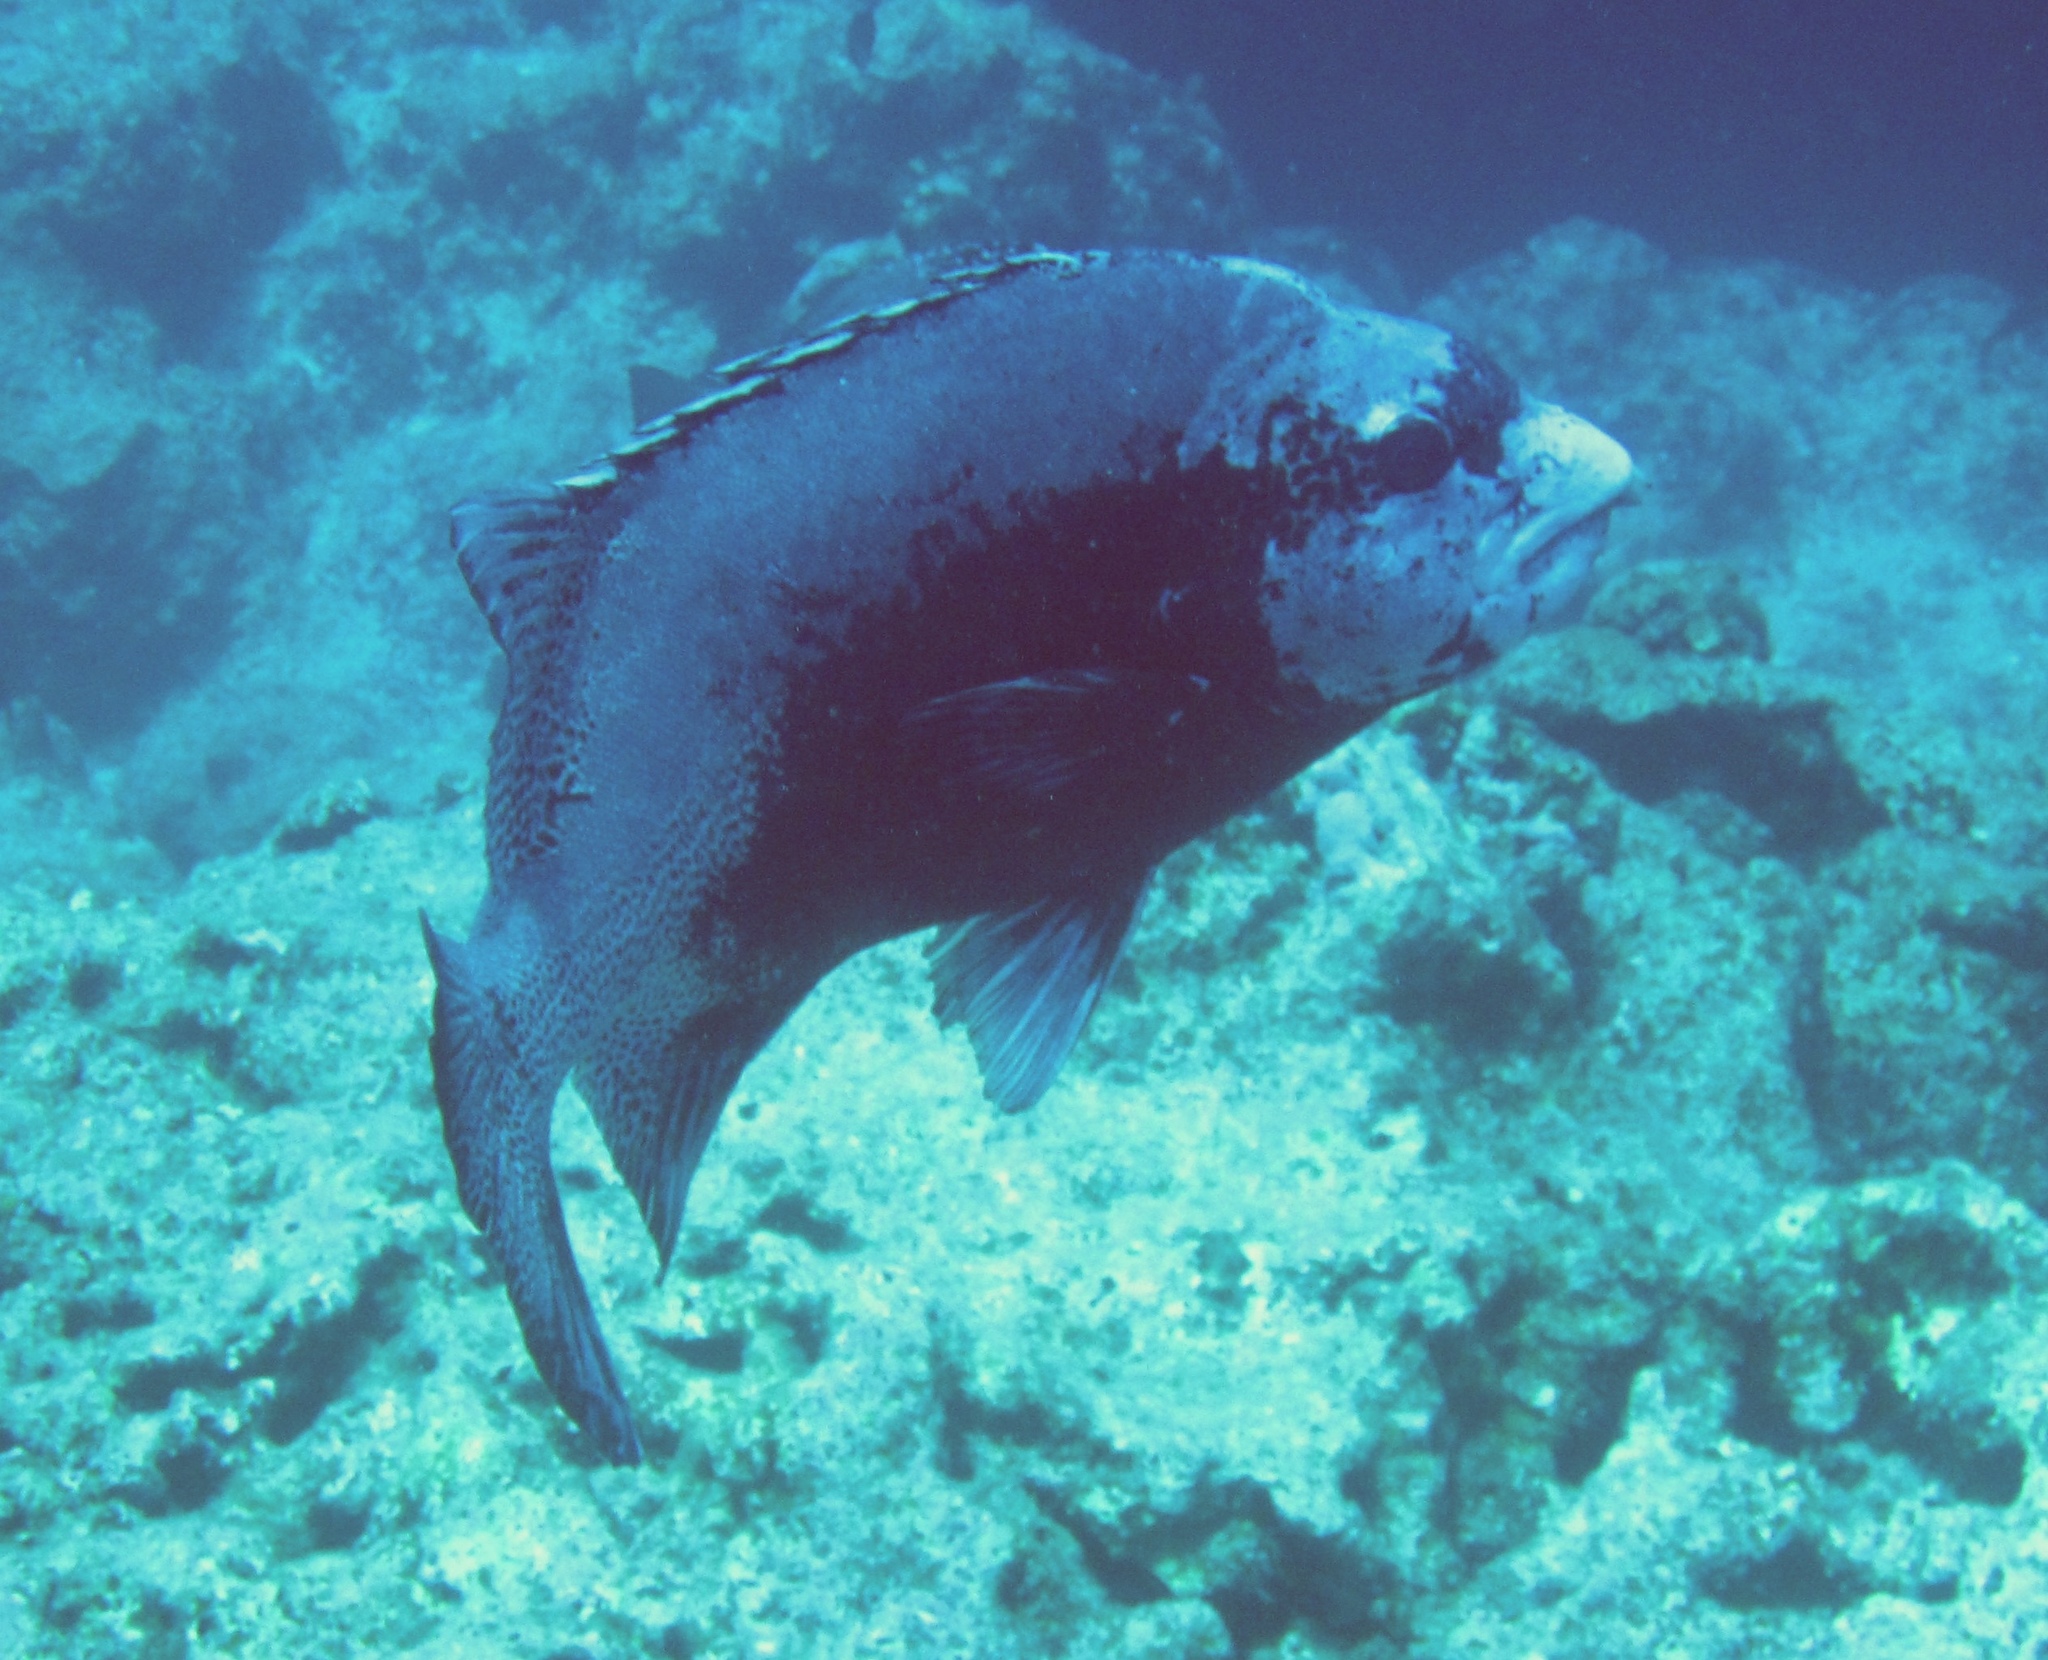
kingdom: Animalia
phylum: Chordata
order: Perciformes
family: Oplegnathidae
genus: Oplegnathus
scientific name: Oplegnathus punctatus
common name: Spotted knifejaw
